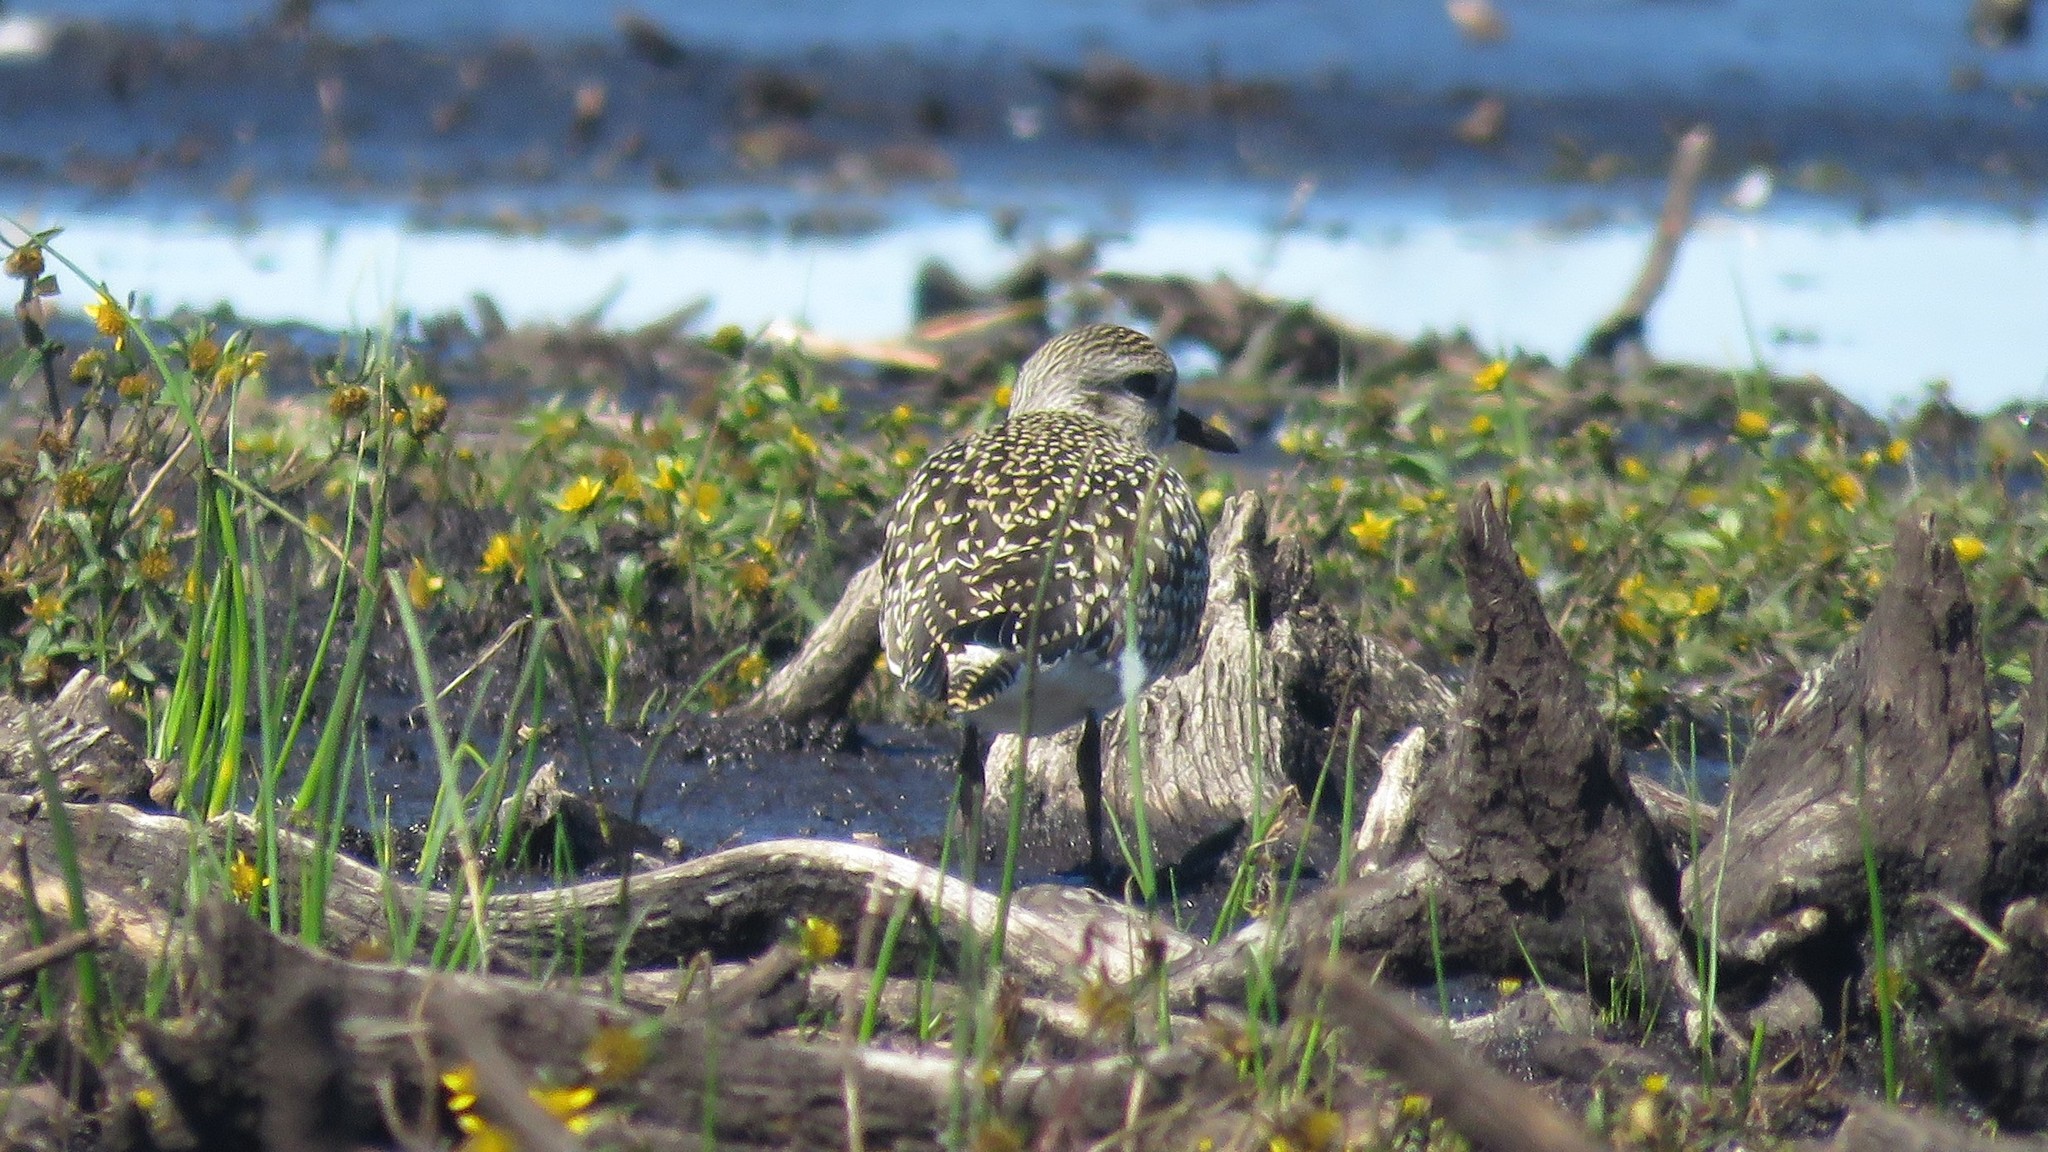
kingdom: Animalia
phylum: Chordata
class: Aves
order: Charadriiformes
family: Charadriidae
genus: Pluvialis
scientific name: Pluvialis squatarola
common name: Grey plover
